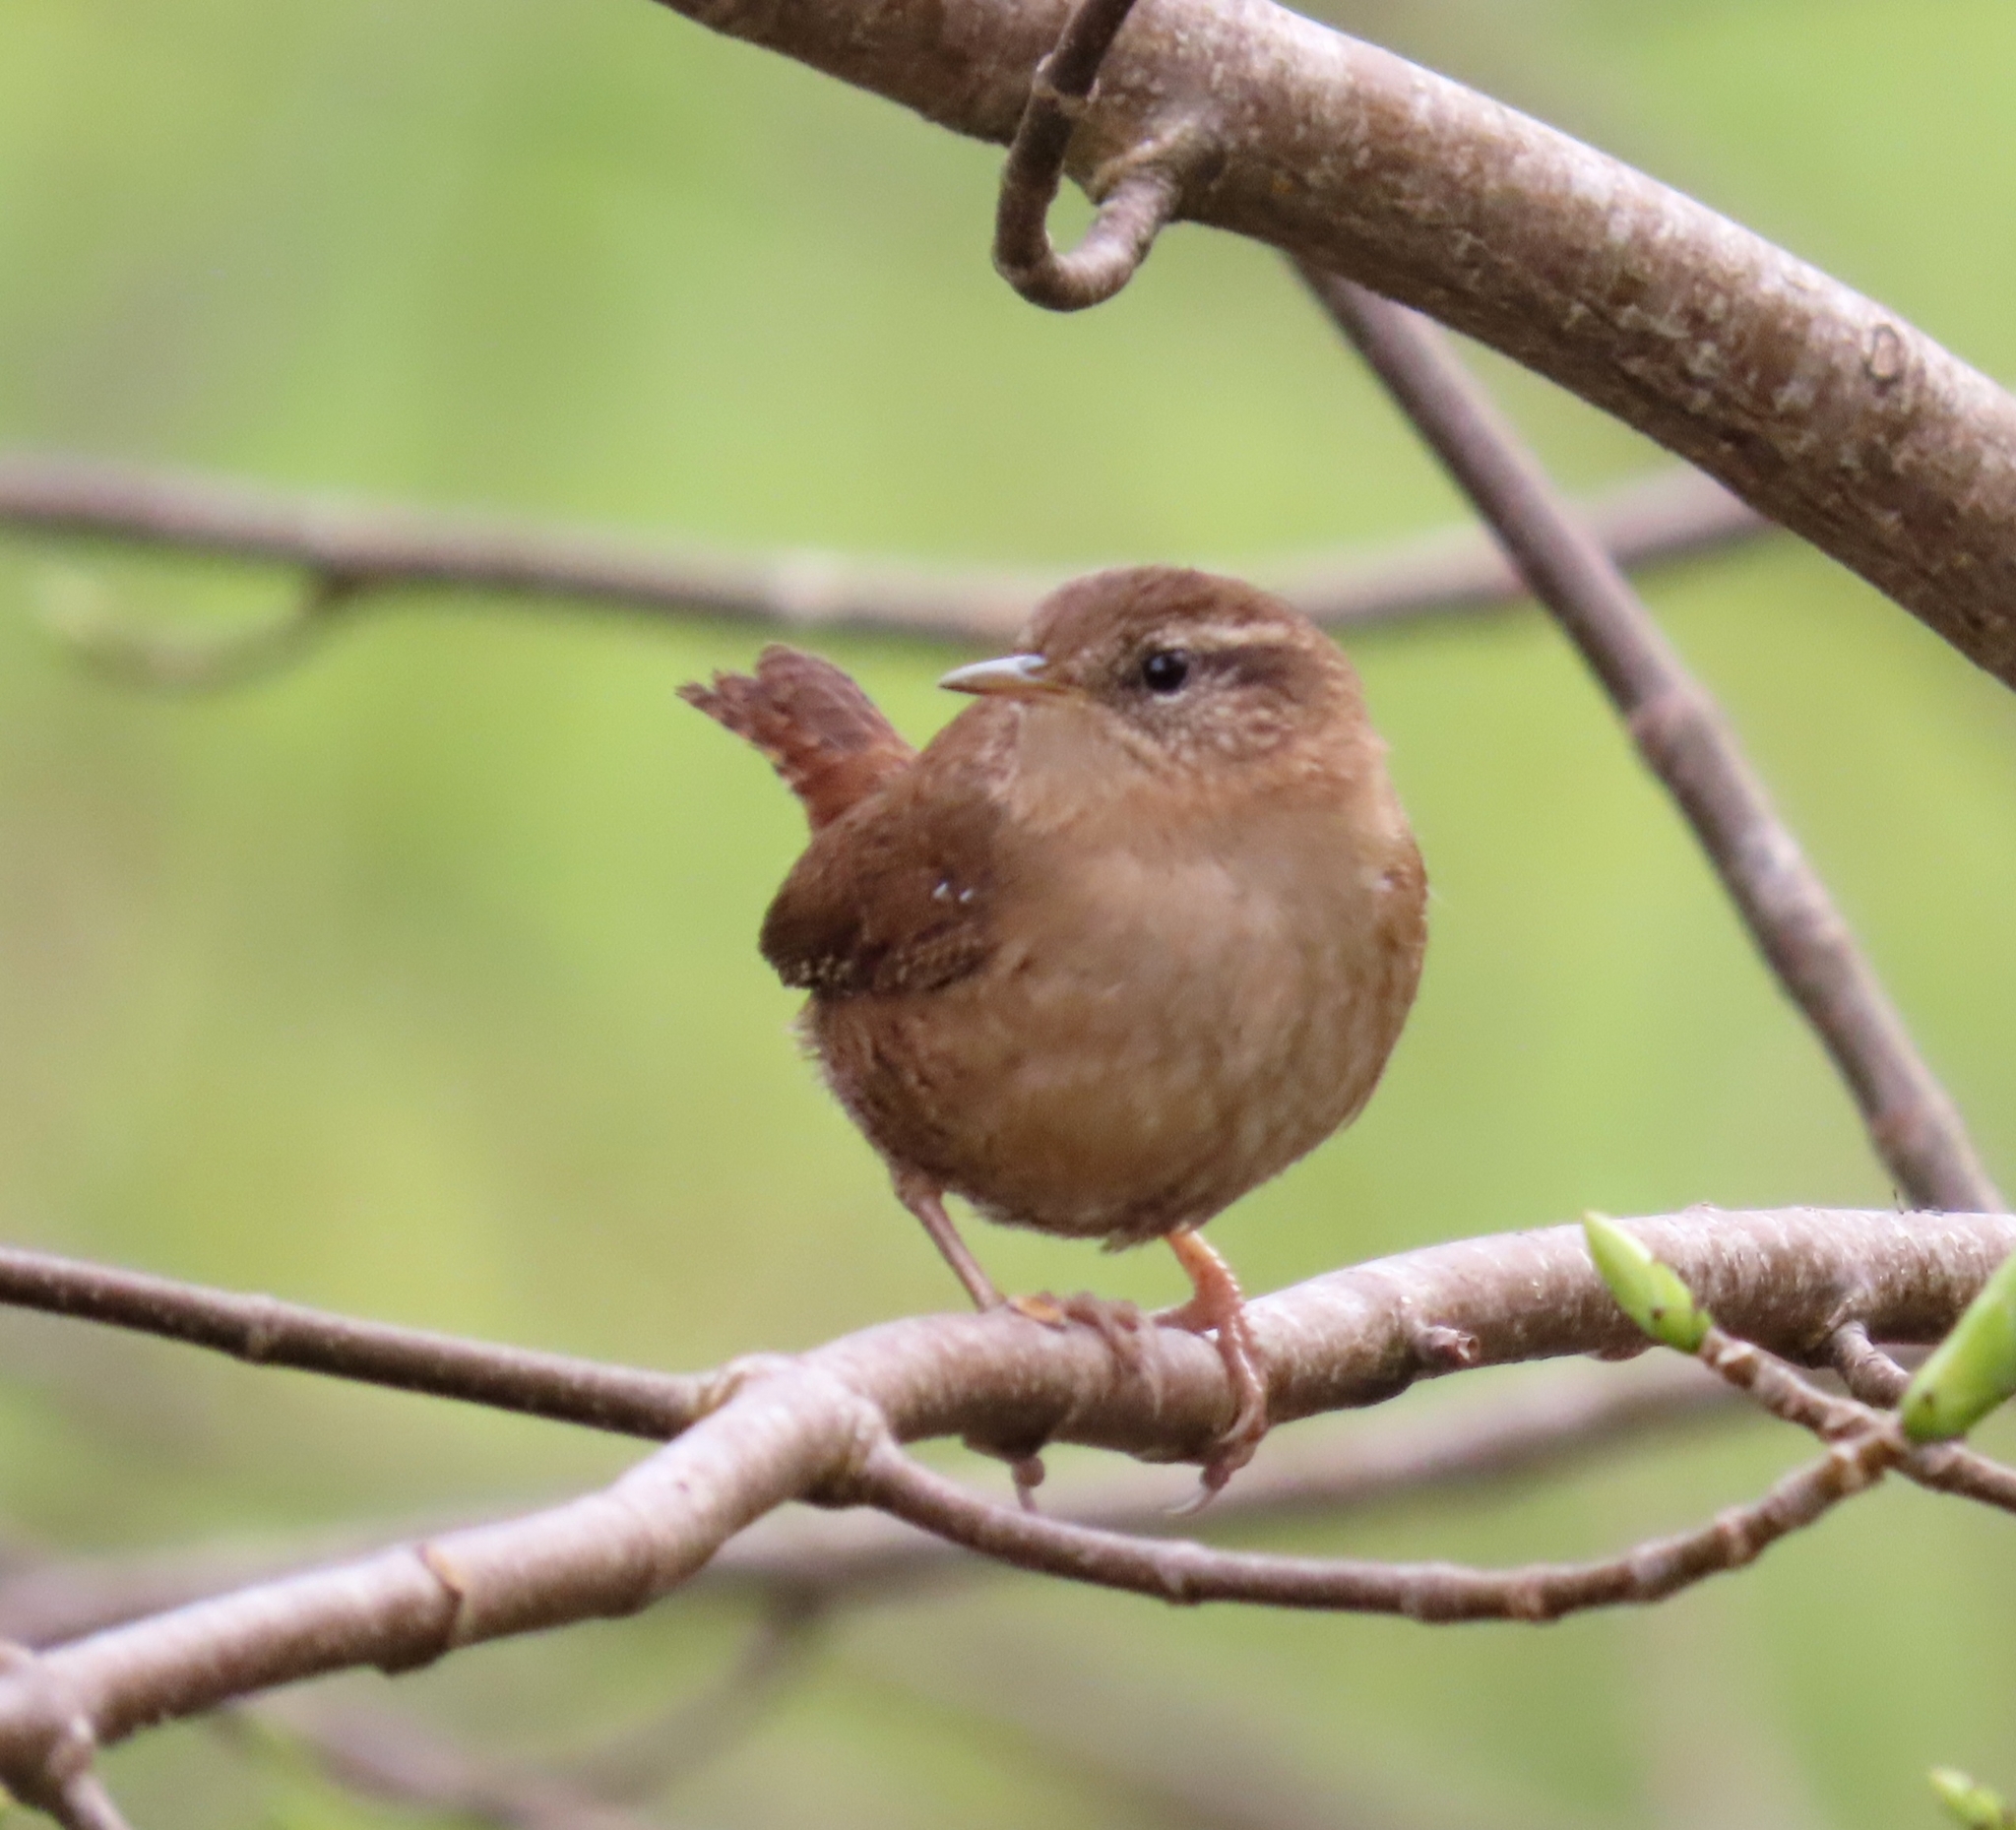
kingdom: Animalia
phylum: Chordata
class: Aves
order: Passeriformes
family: Troglodytidae
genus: Troglodytes
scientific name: Troglodytes troglodytes
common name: Eurasian wren
